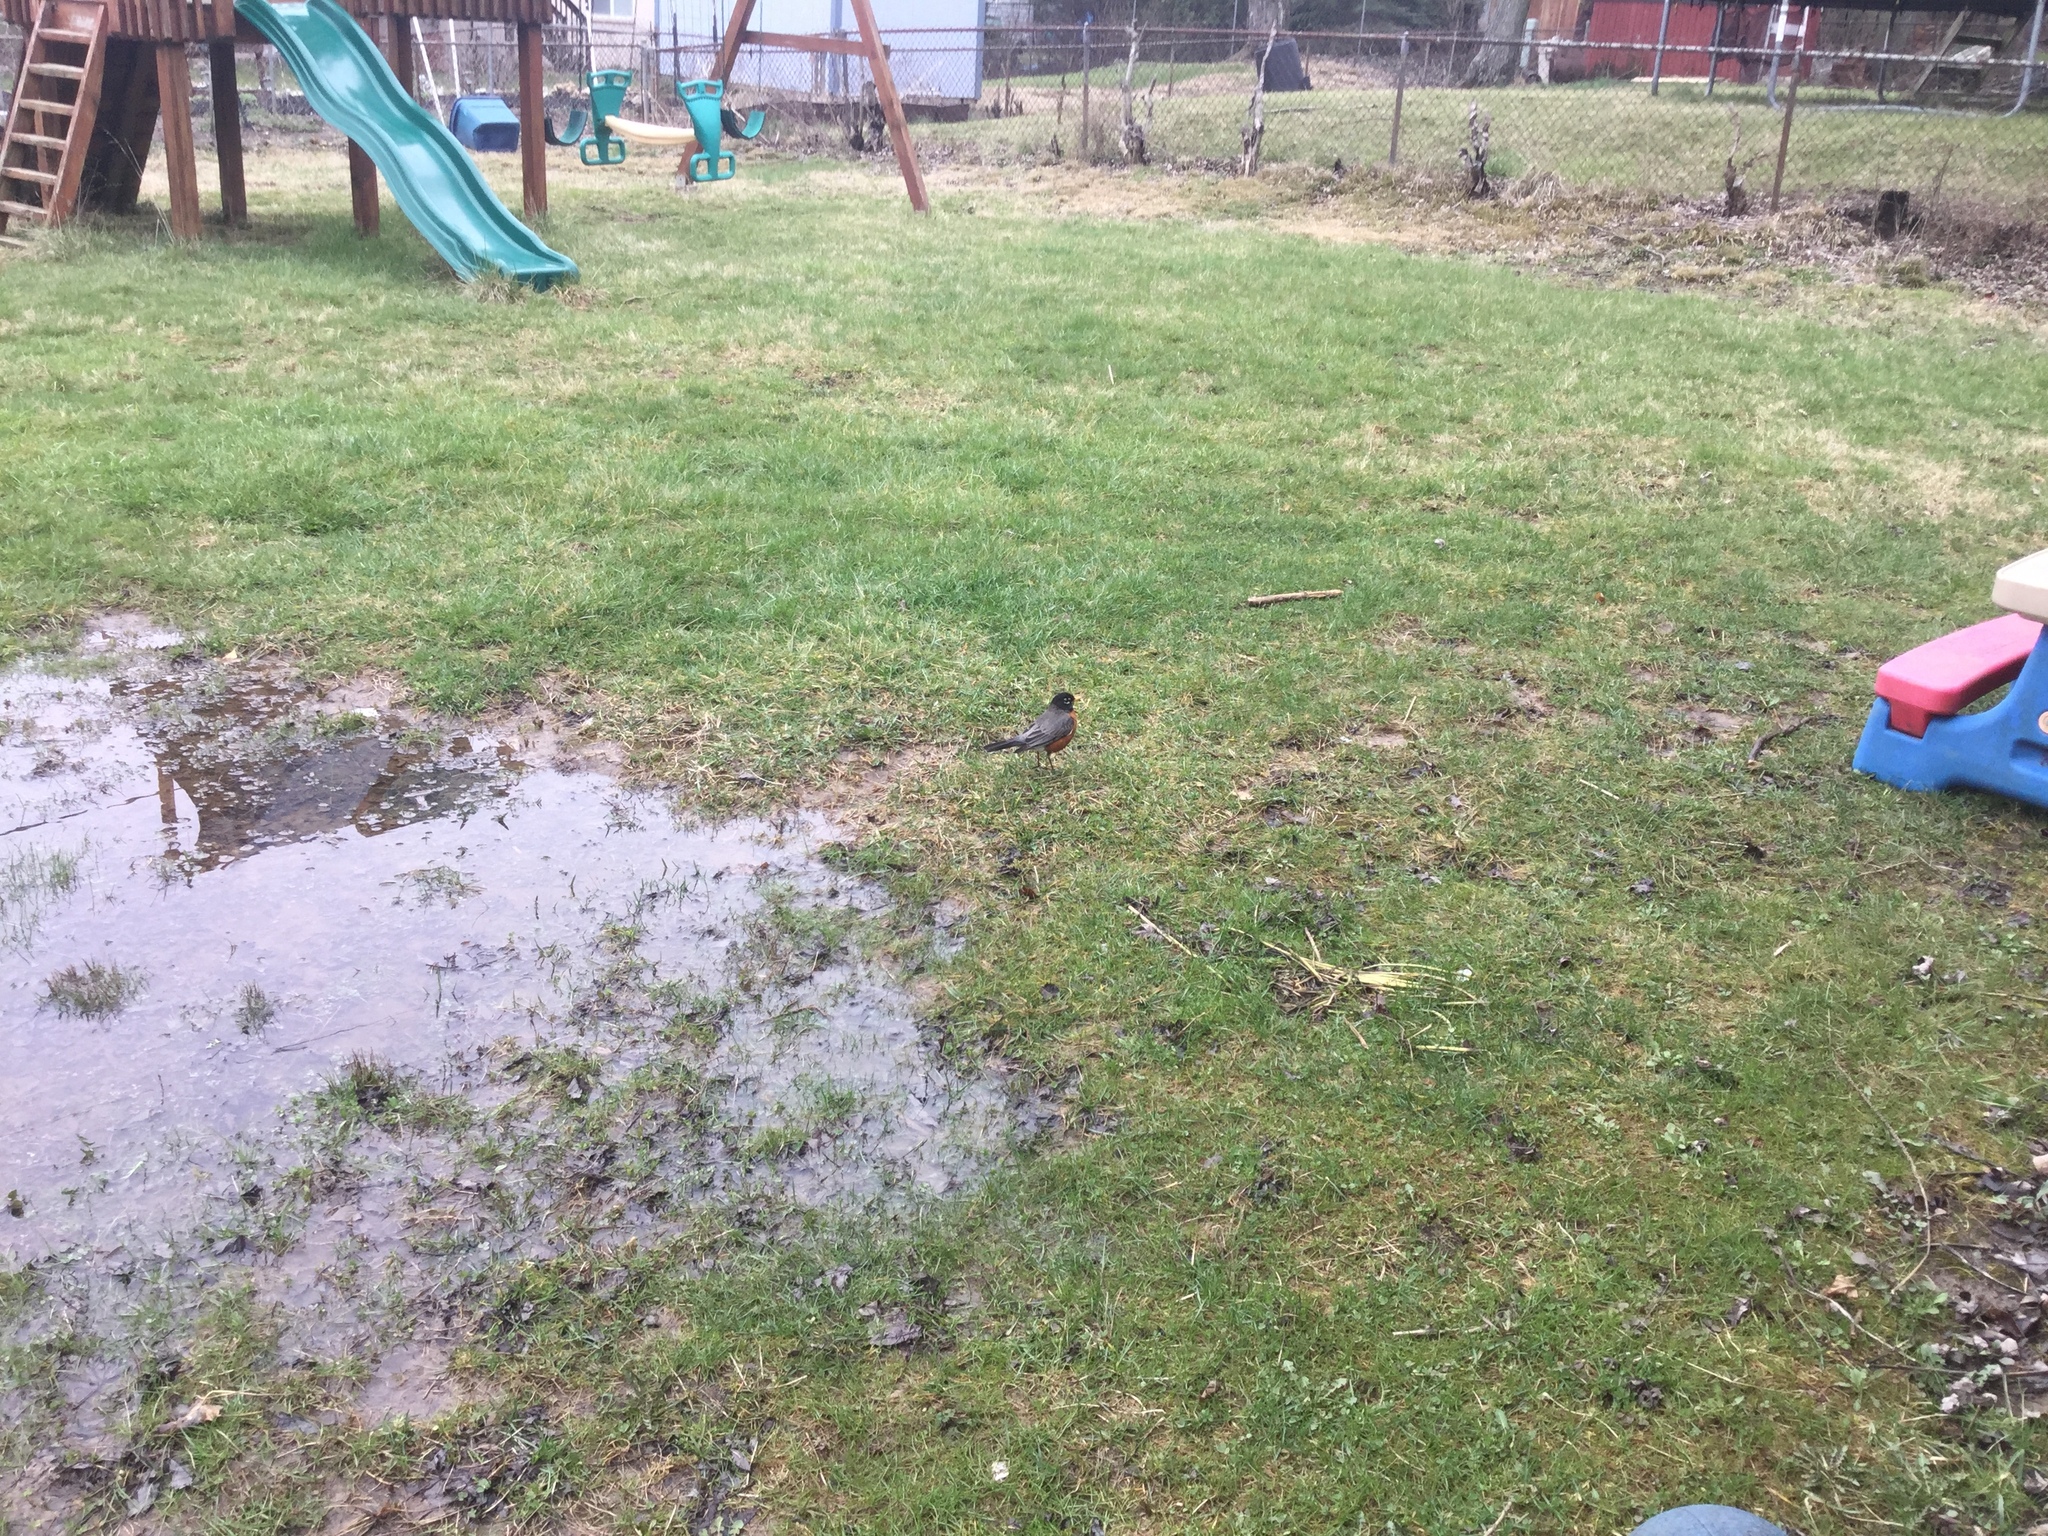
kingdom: Animalia
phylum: Chordata
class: Aves
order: Passeriformes
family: Turdidae
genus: Turdus
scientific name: Turdus migratorius
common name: American robin
